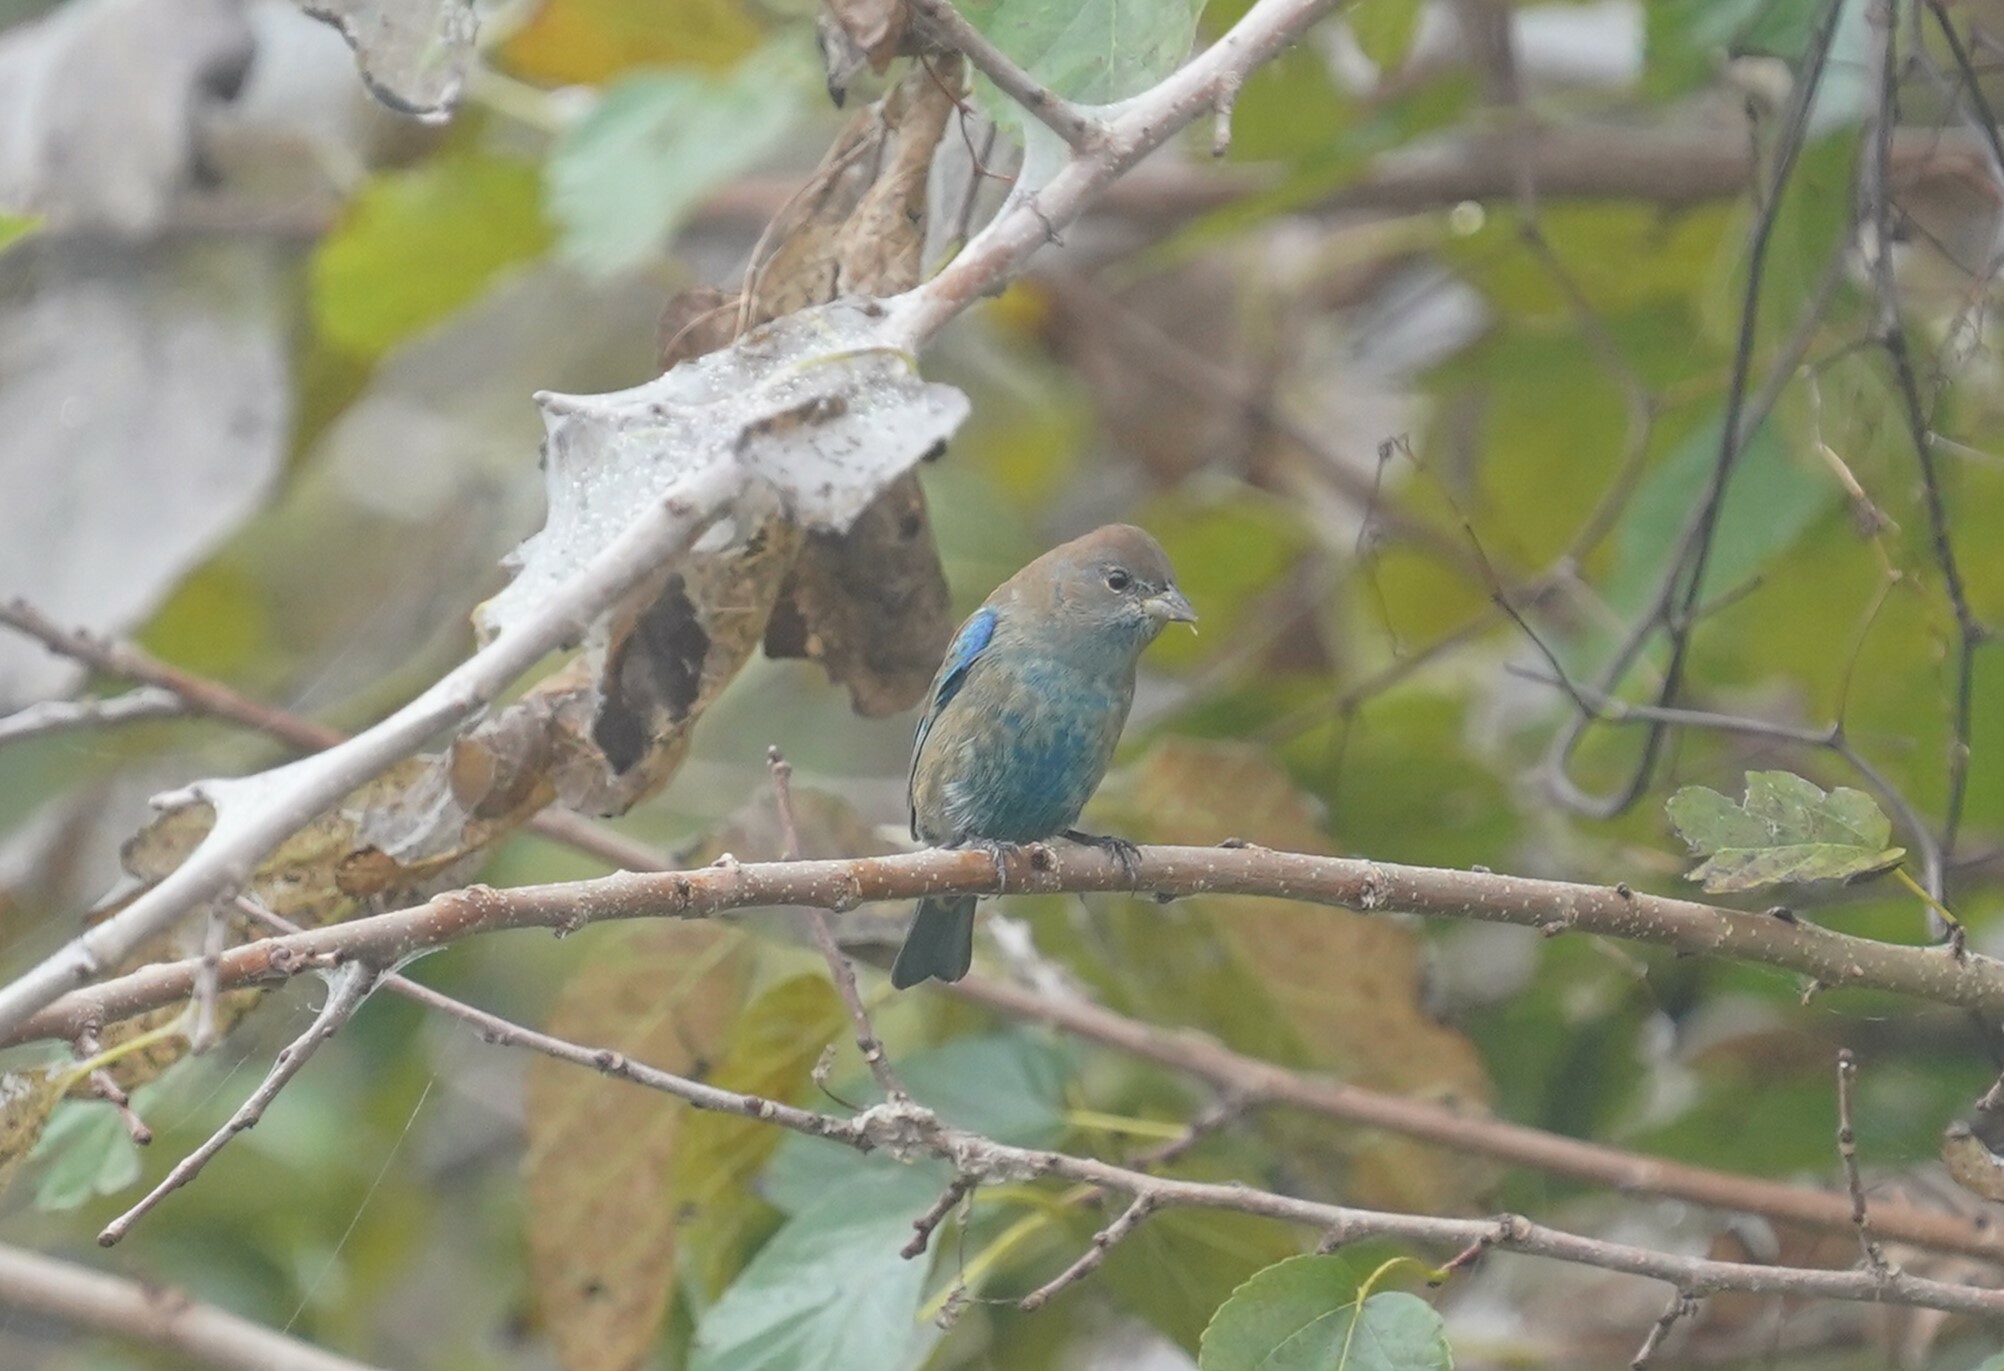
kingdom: Animalia
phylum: Chordata
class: Aves
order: Passeriformes
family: Cardinalidae
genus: Passerina
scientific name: Passerina cyanea
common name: Indigo bunting
